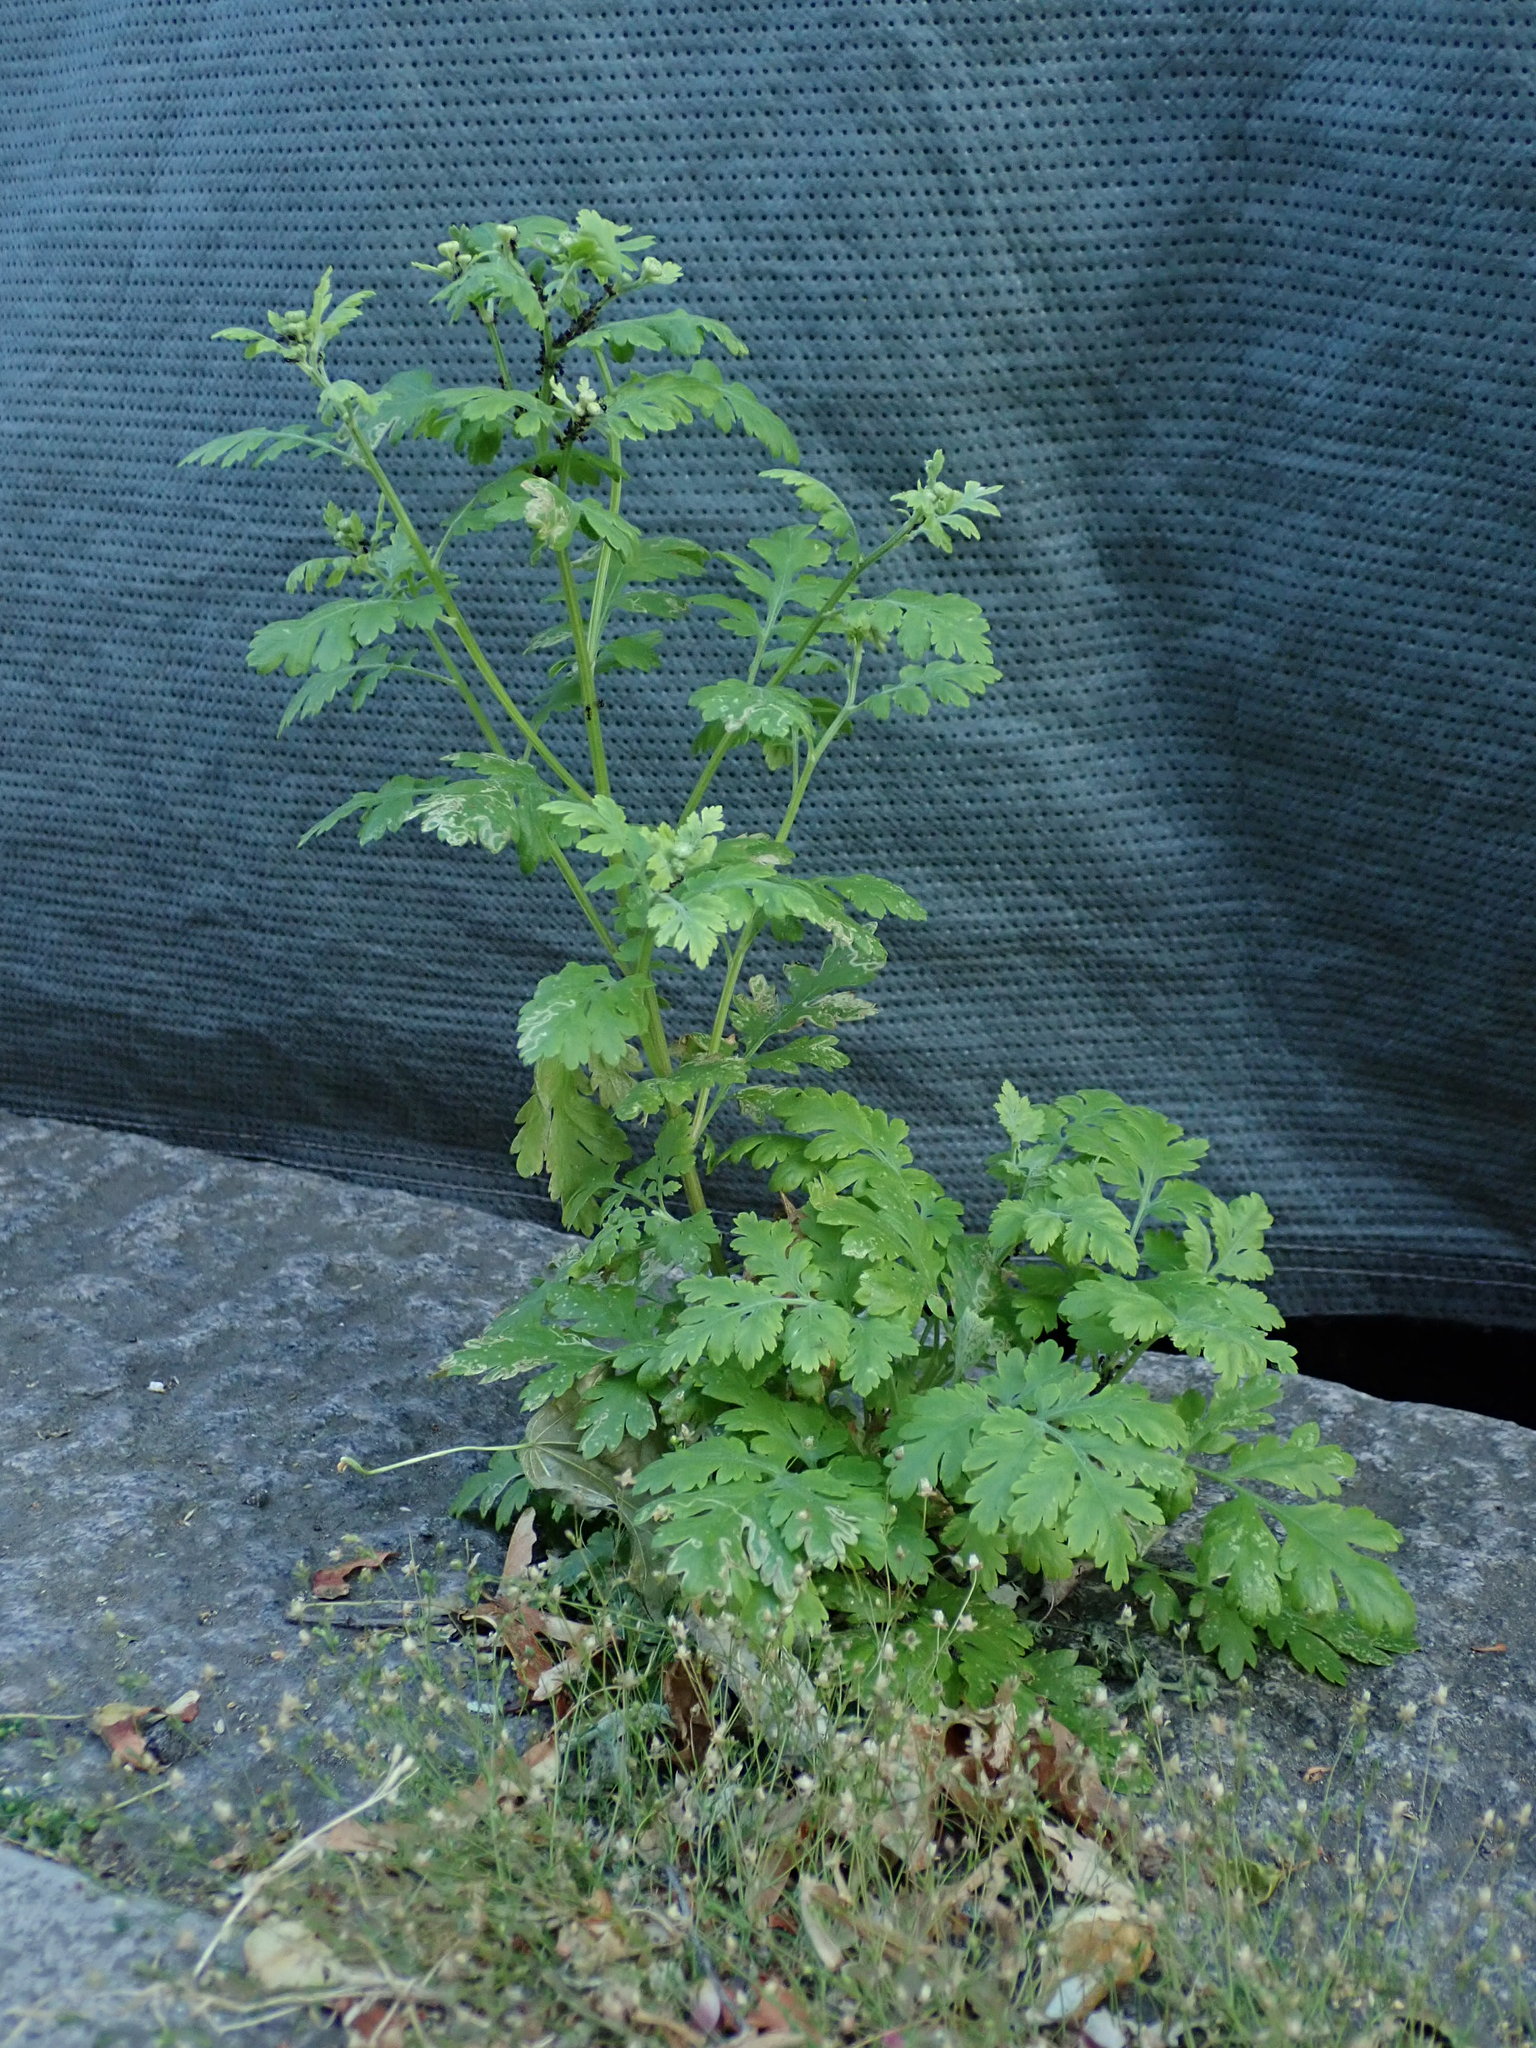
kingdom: Plantae
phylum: Tracheophyta
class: Magnoliopsida
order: Asterales
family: Asteraceae
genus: Tanacetum
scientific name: Tanacetum parthenium
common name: Feverfew
